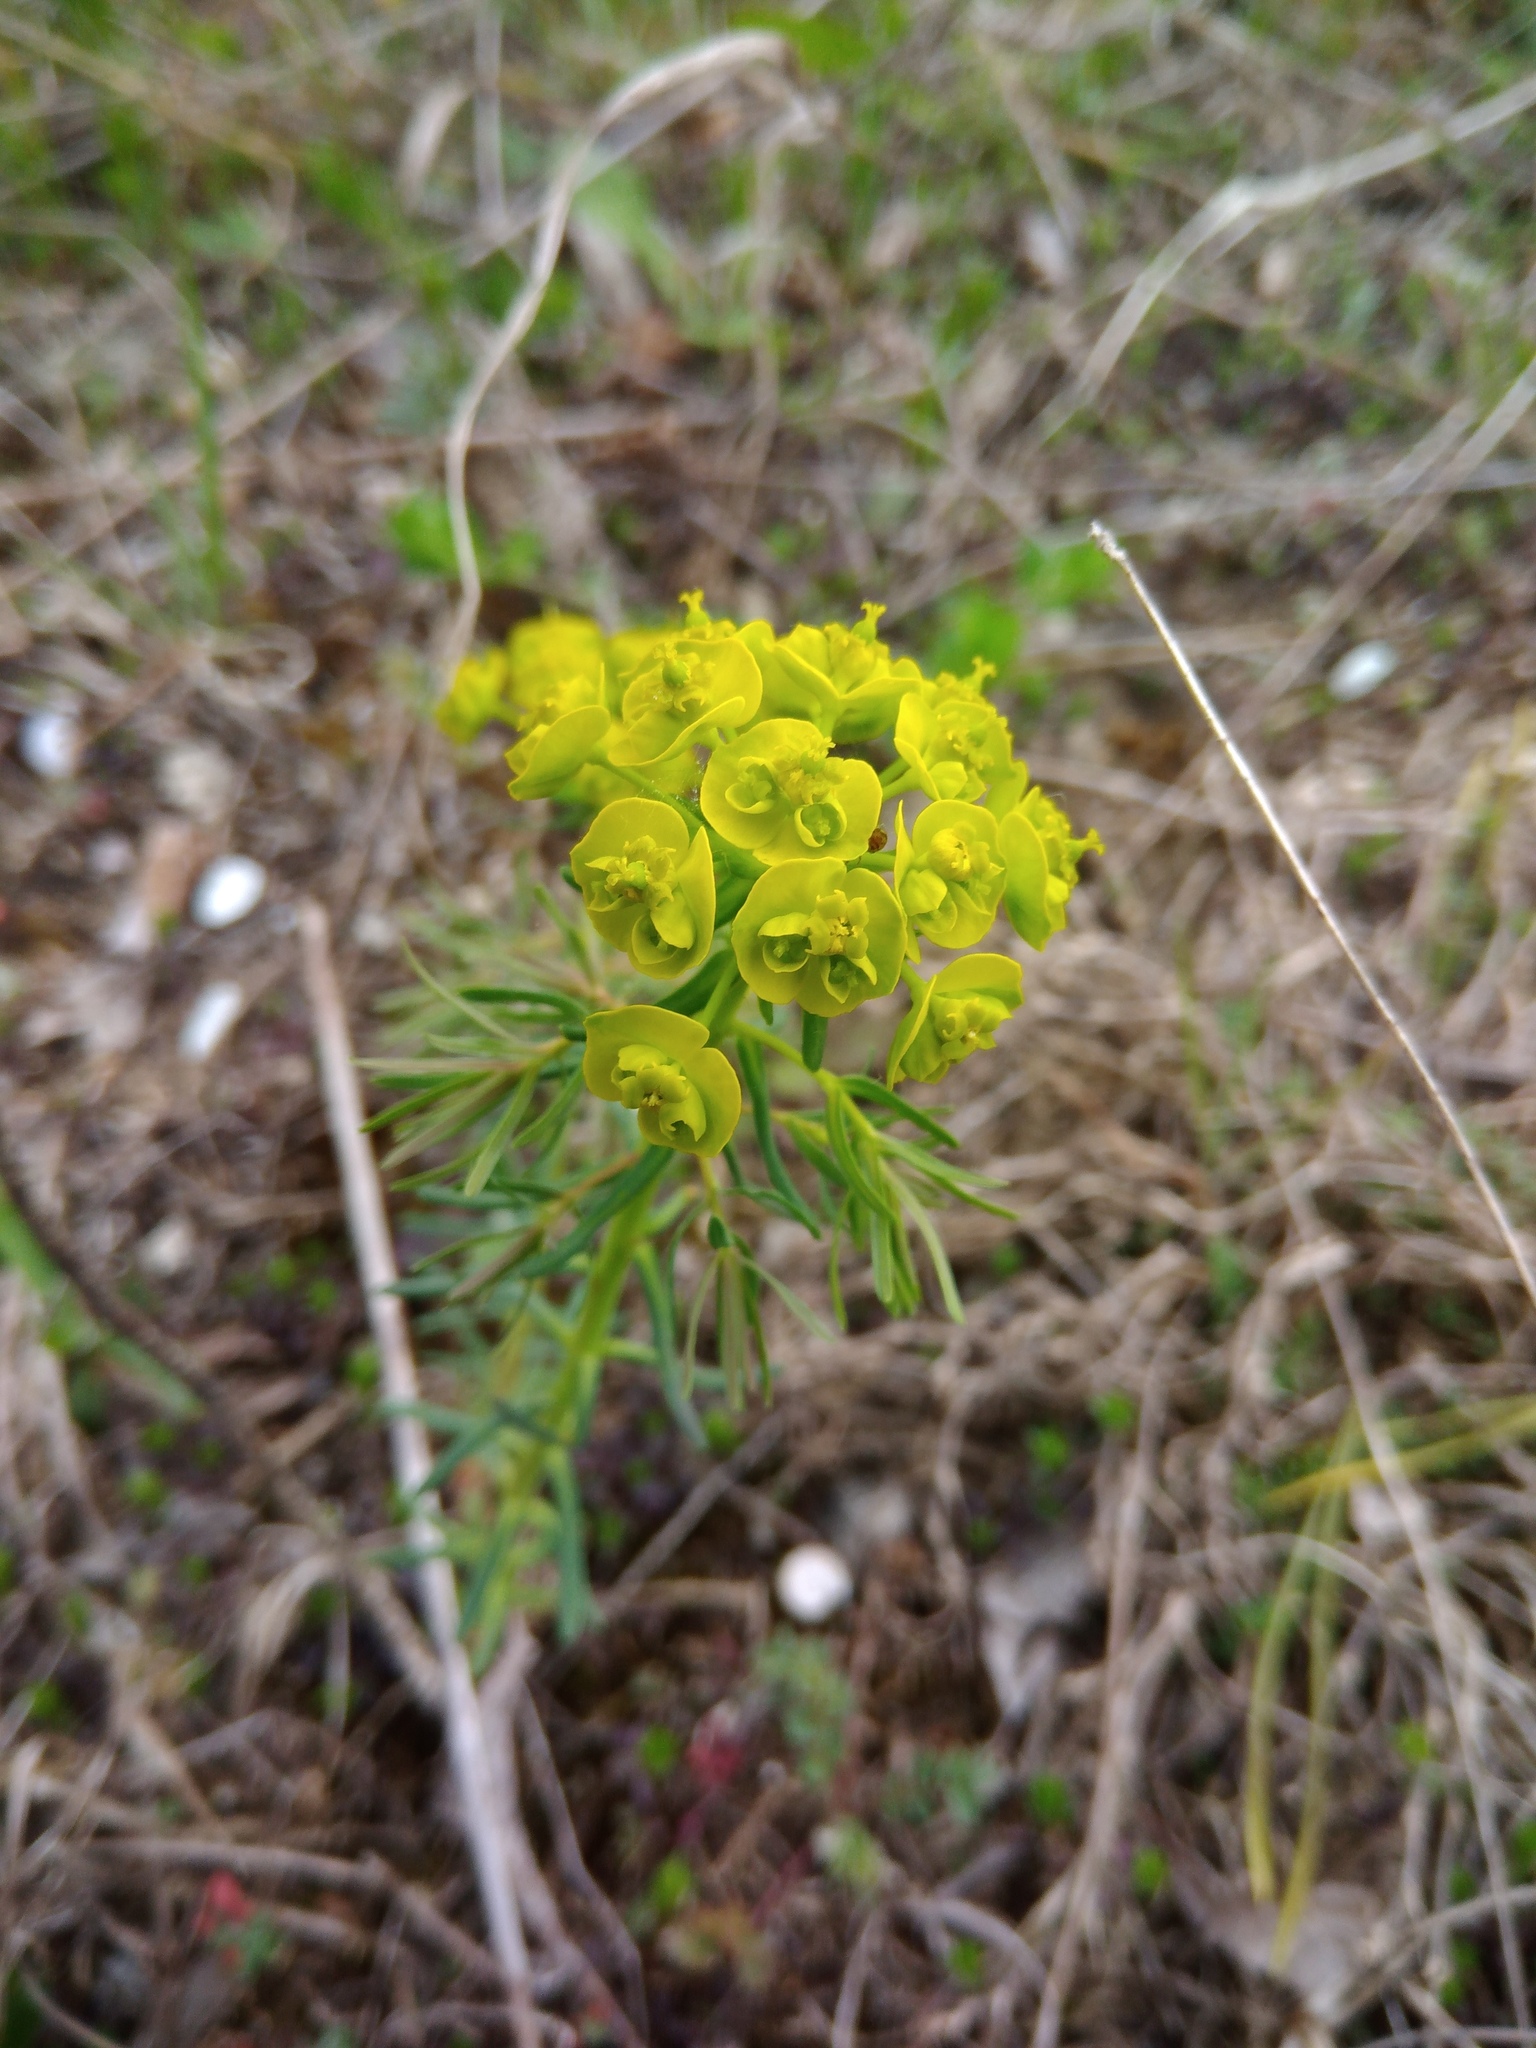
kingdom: Plantae
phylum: Tracheophyta
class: Magnoliopsida
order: Malpighiales
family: Euphorbiaceae
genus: Euphorbia
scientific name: Euphorbia cyparissias
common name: Cypress spurge
